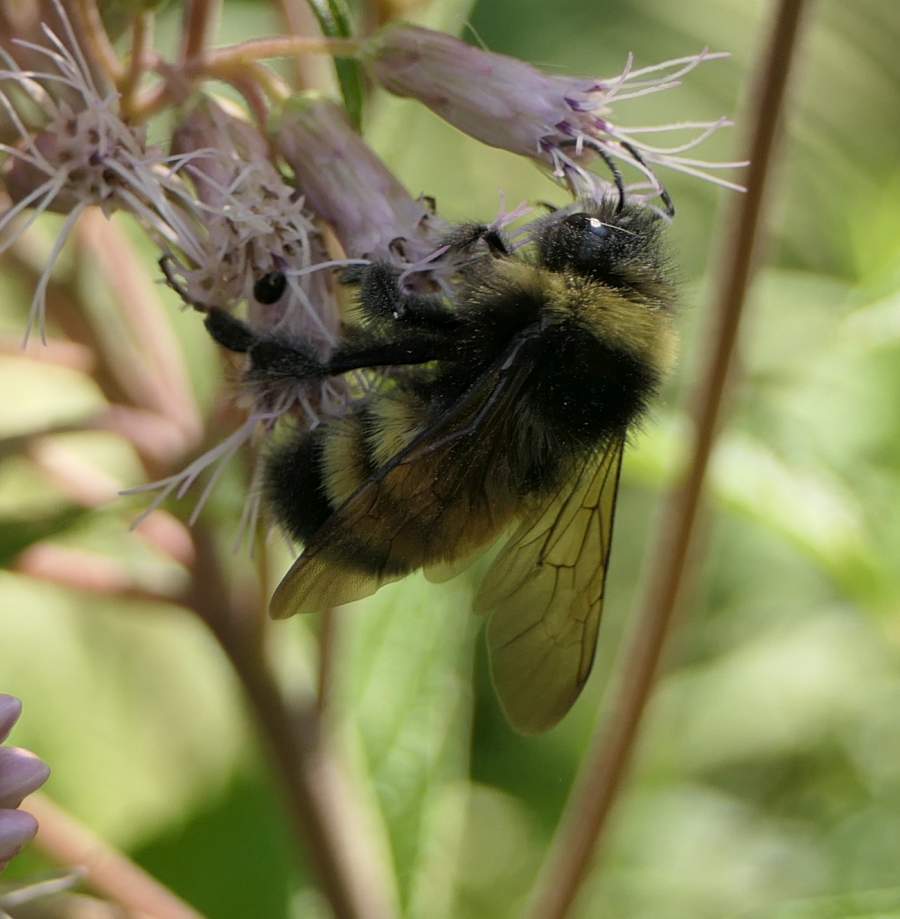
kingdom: Animalia
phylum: Arthropoda
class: Insecta
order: Hymenoptera
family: Apidae
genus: Bombus
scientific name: Bombus terricola
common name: Yellow-banded bumble bee
